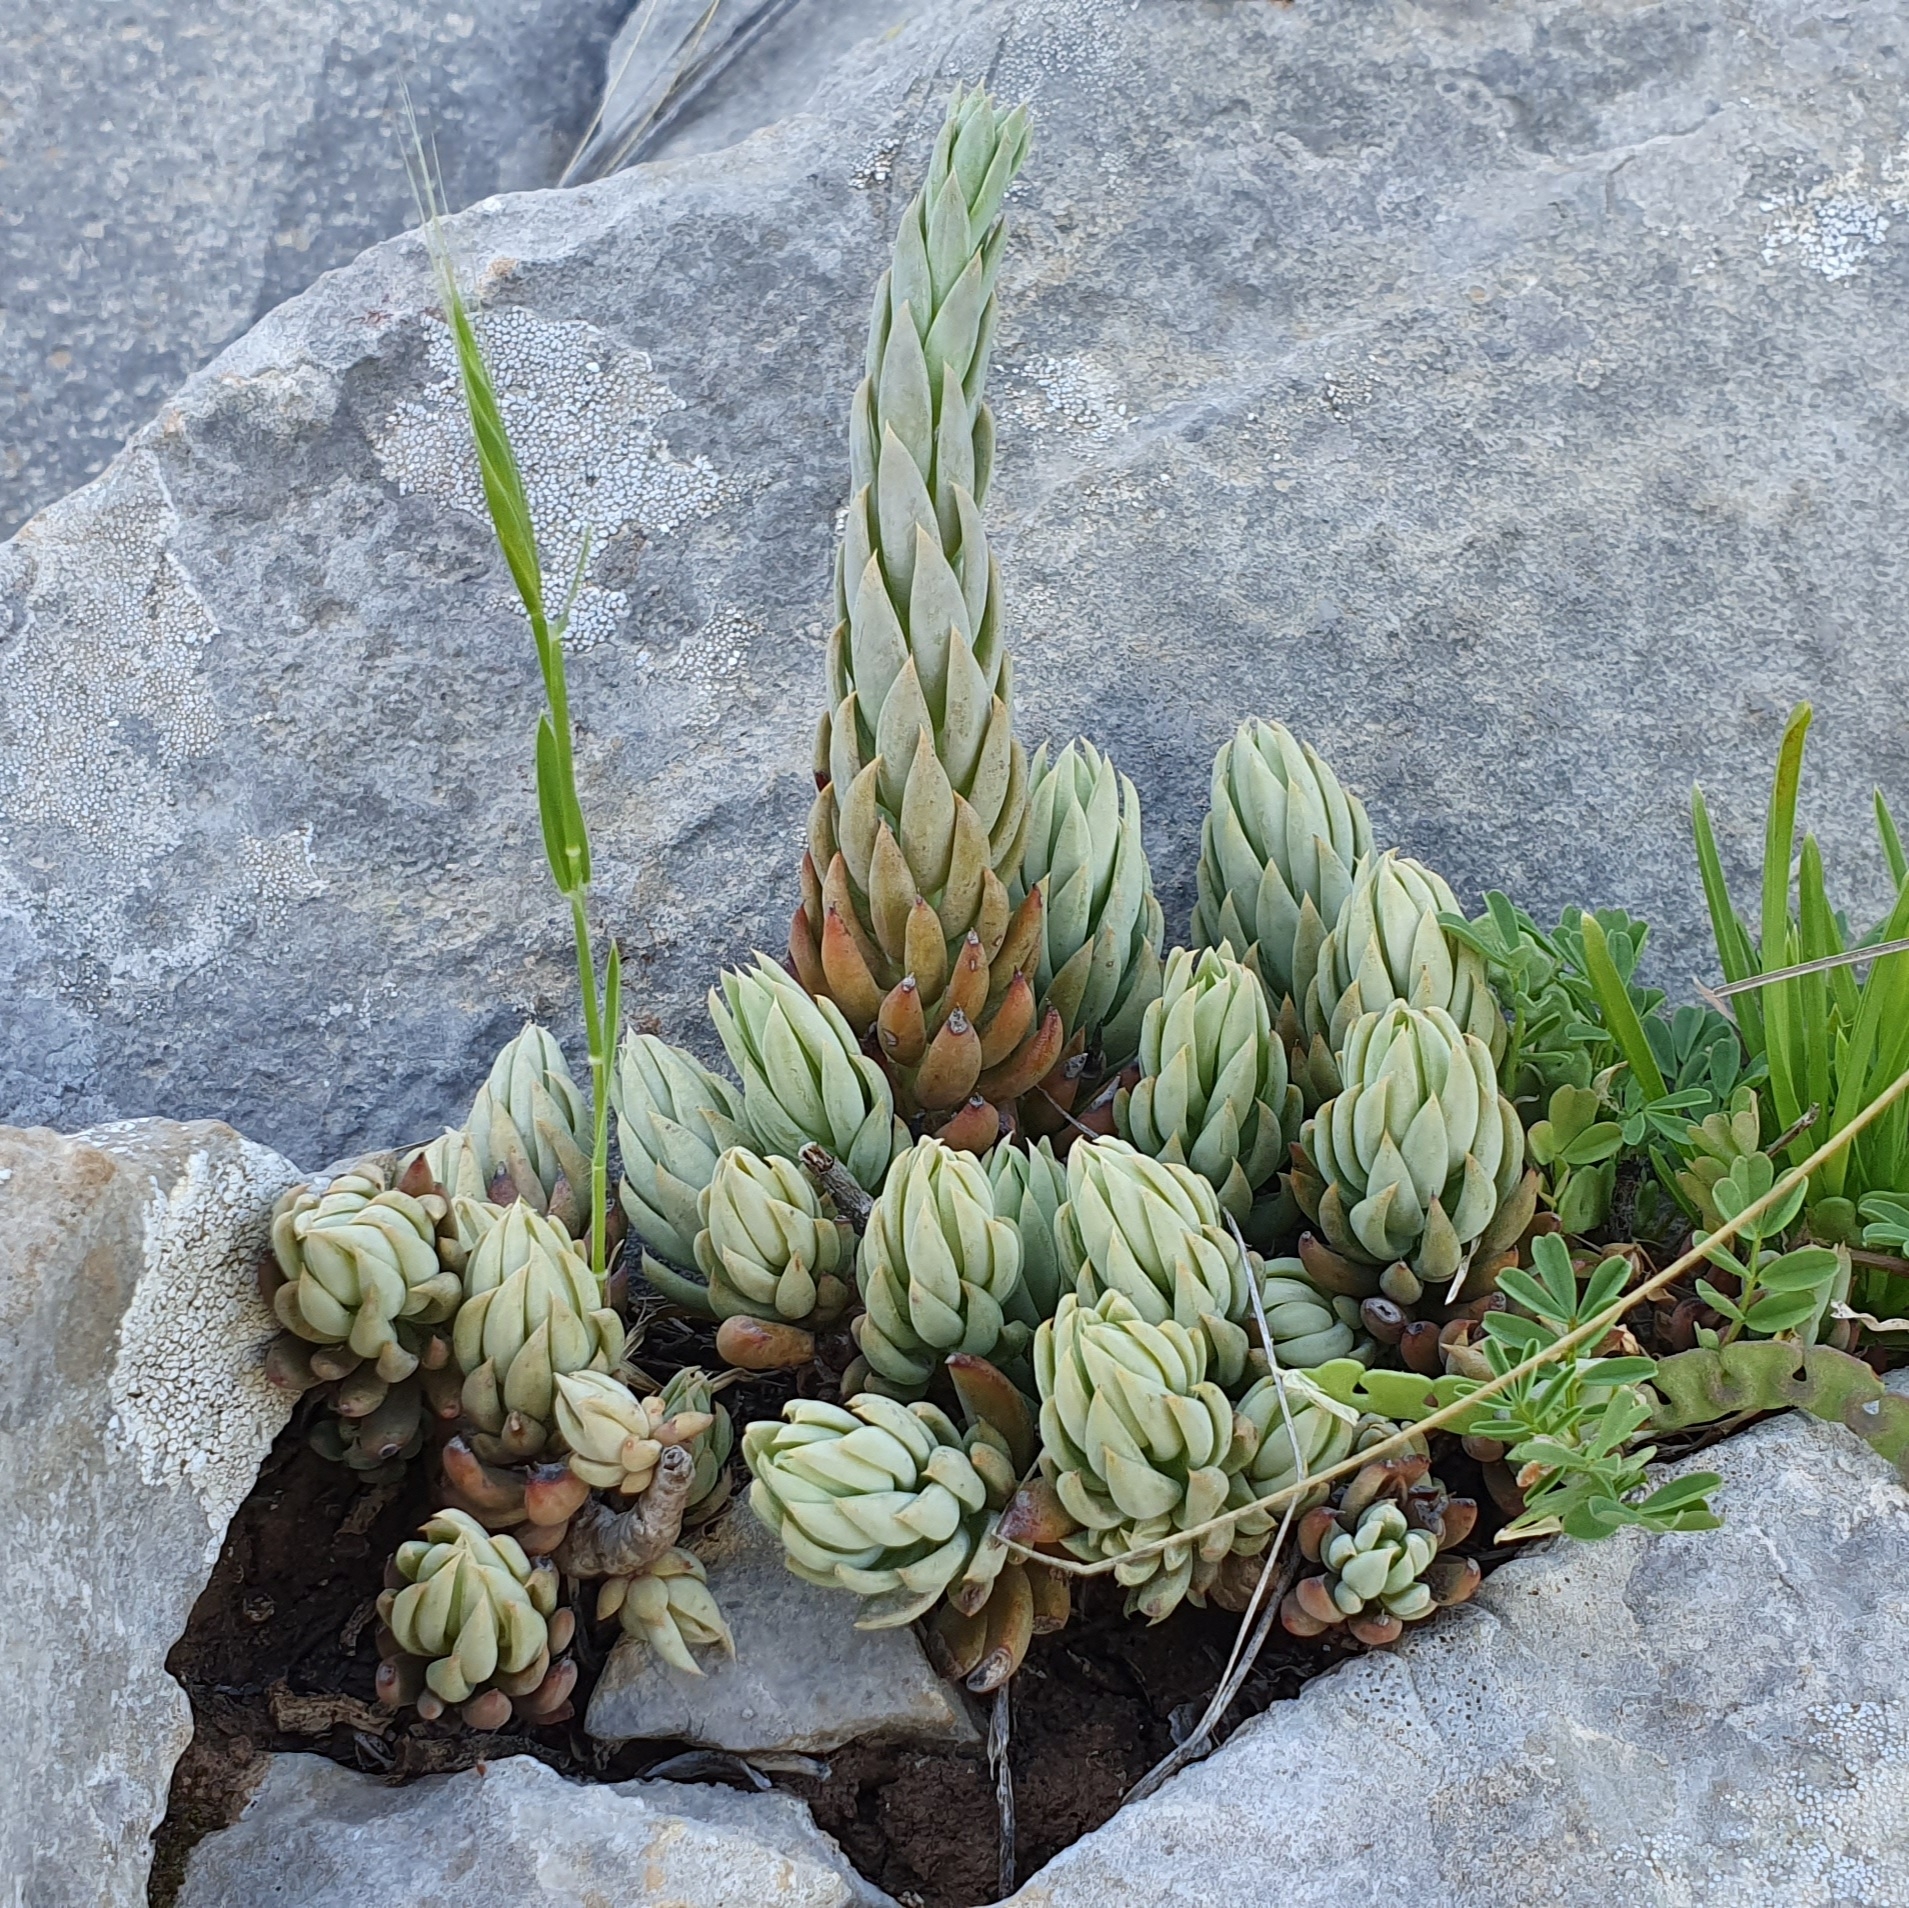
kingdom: Plantae
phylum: Tracheophyta
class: Magnoliopsida
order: Saxifragales
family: Crassulaceae
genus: Petrosedum
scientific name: Petrosedum sediforme
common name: Pale stonecrop
